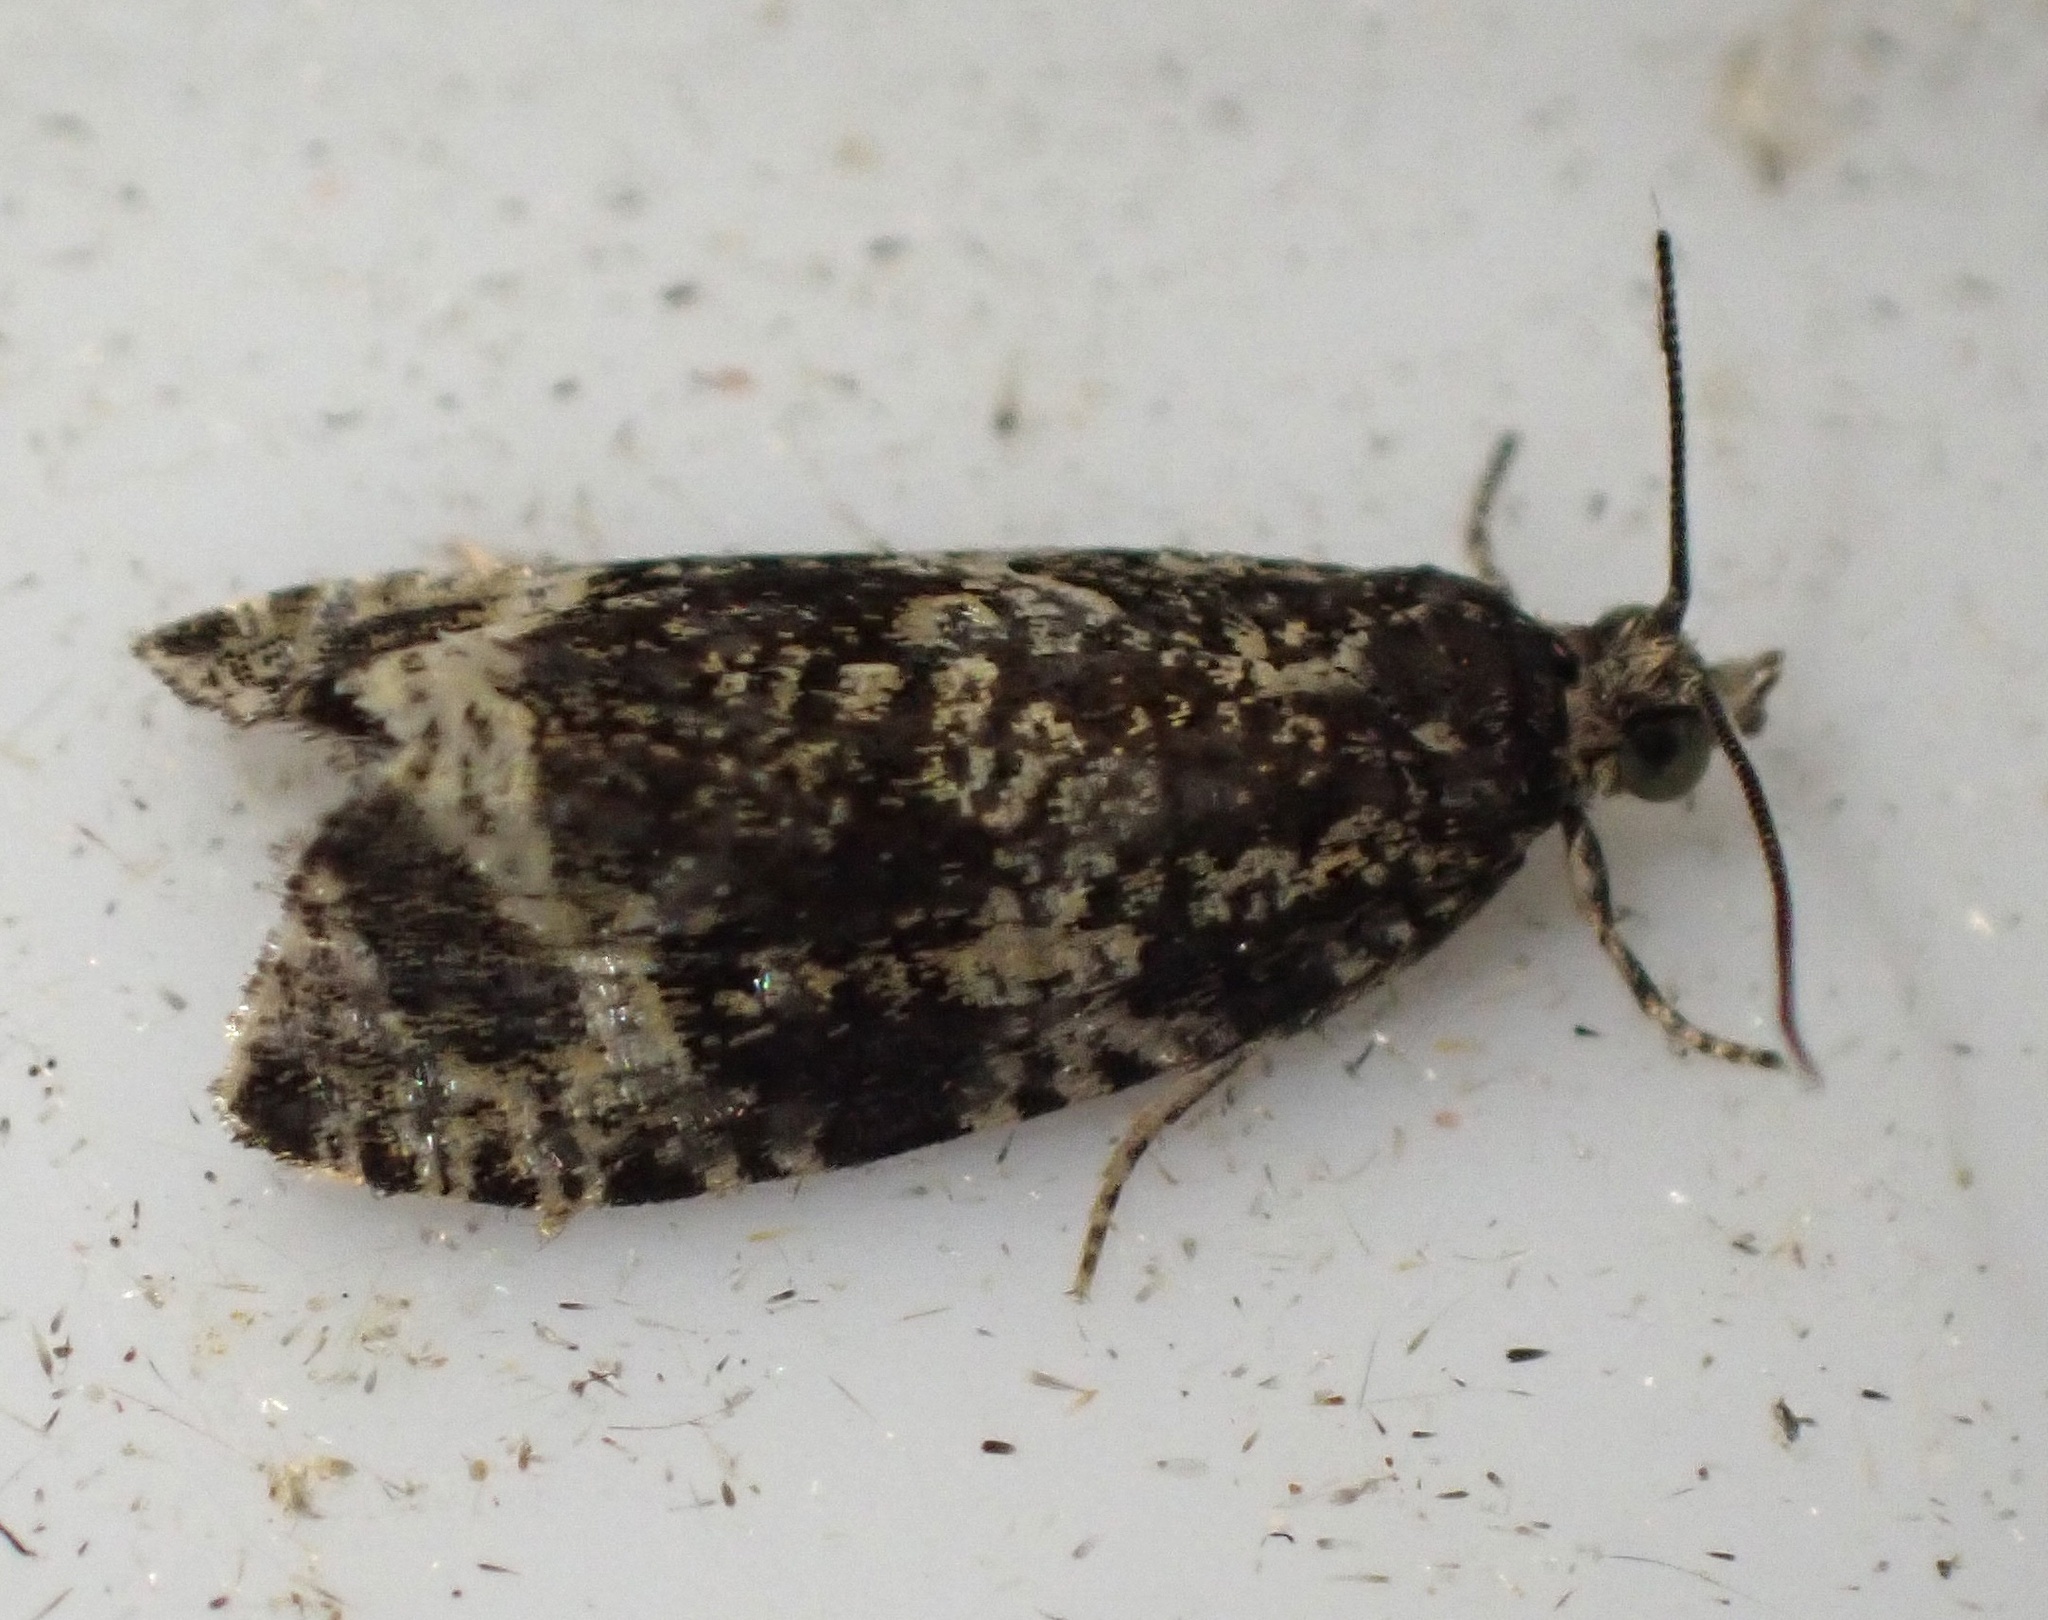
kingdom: Animalia
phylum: Arthropoda
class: Insecta
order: Lepidoptera
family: Tortricidae
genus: Syricoris
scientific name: Syricoris lacunana
